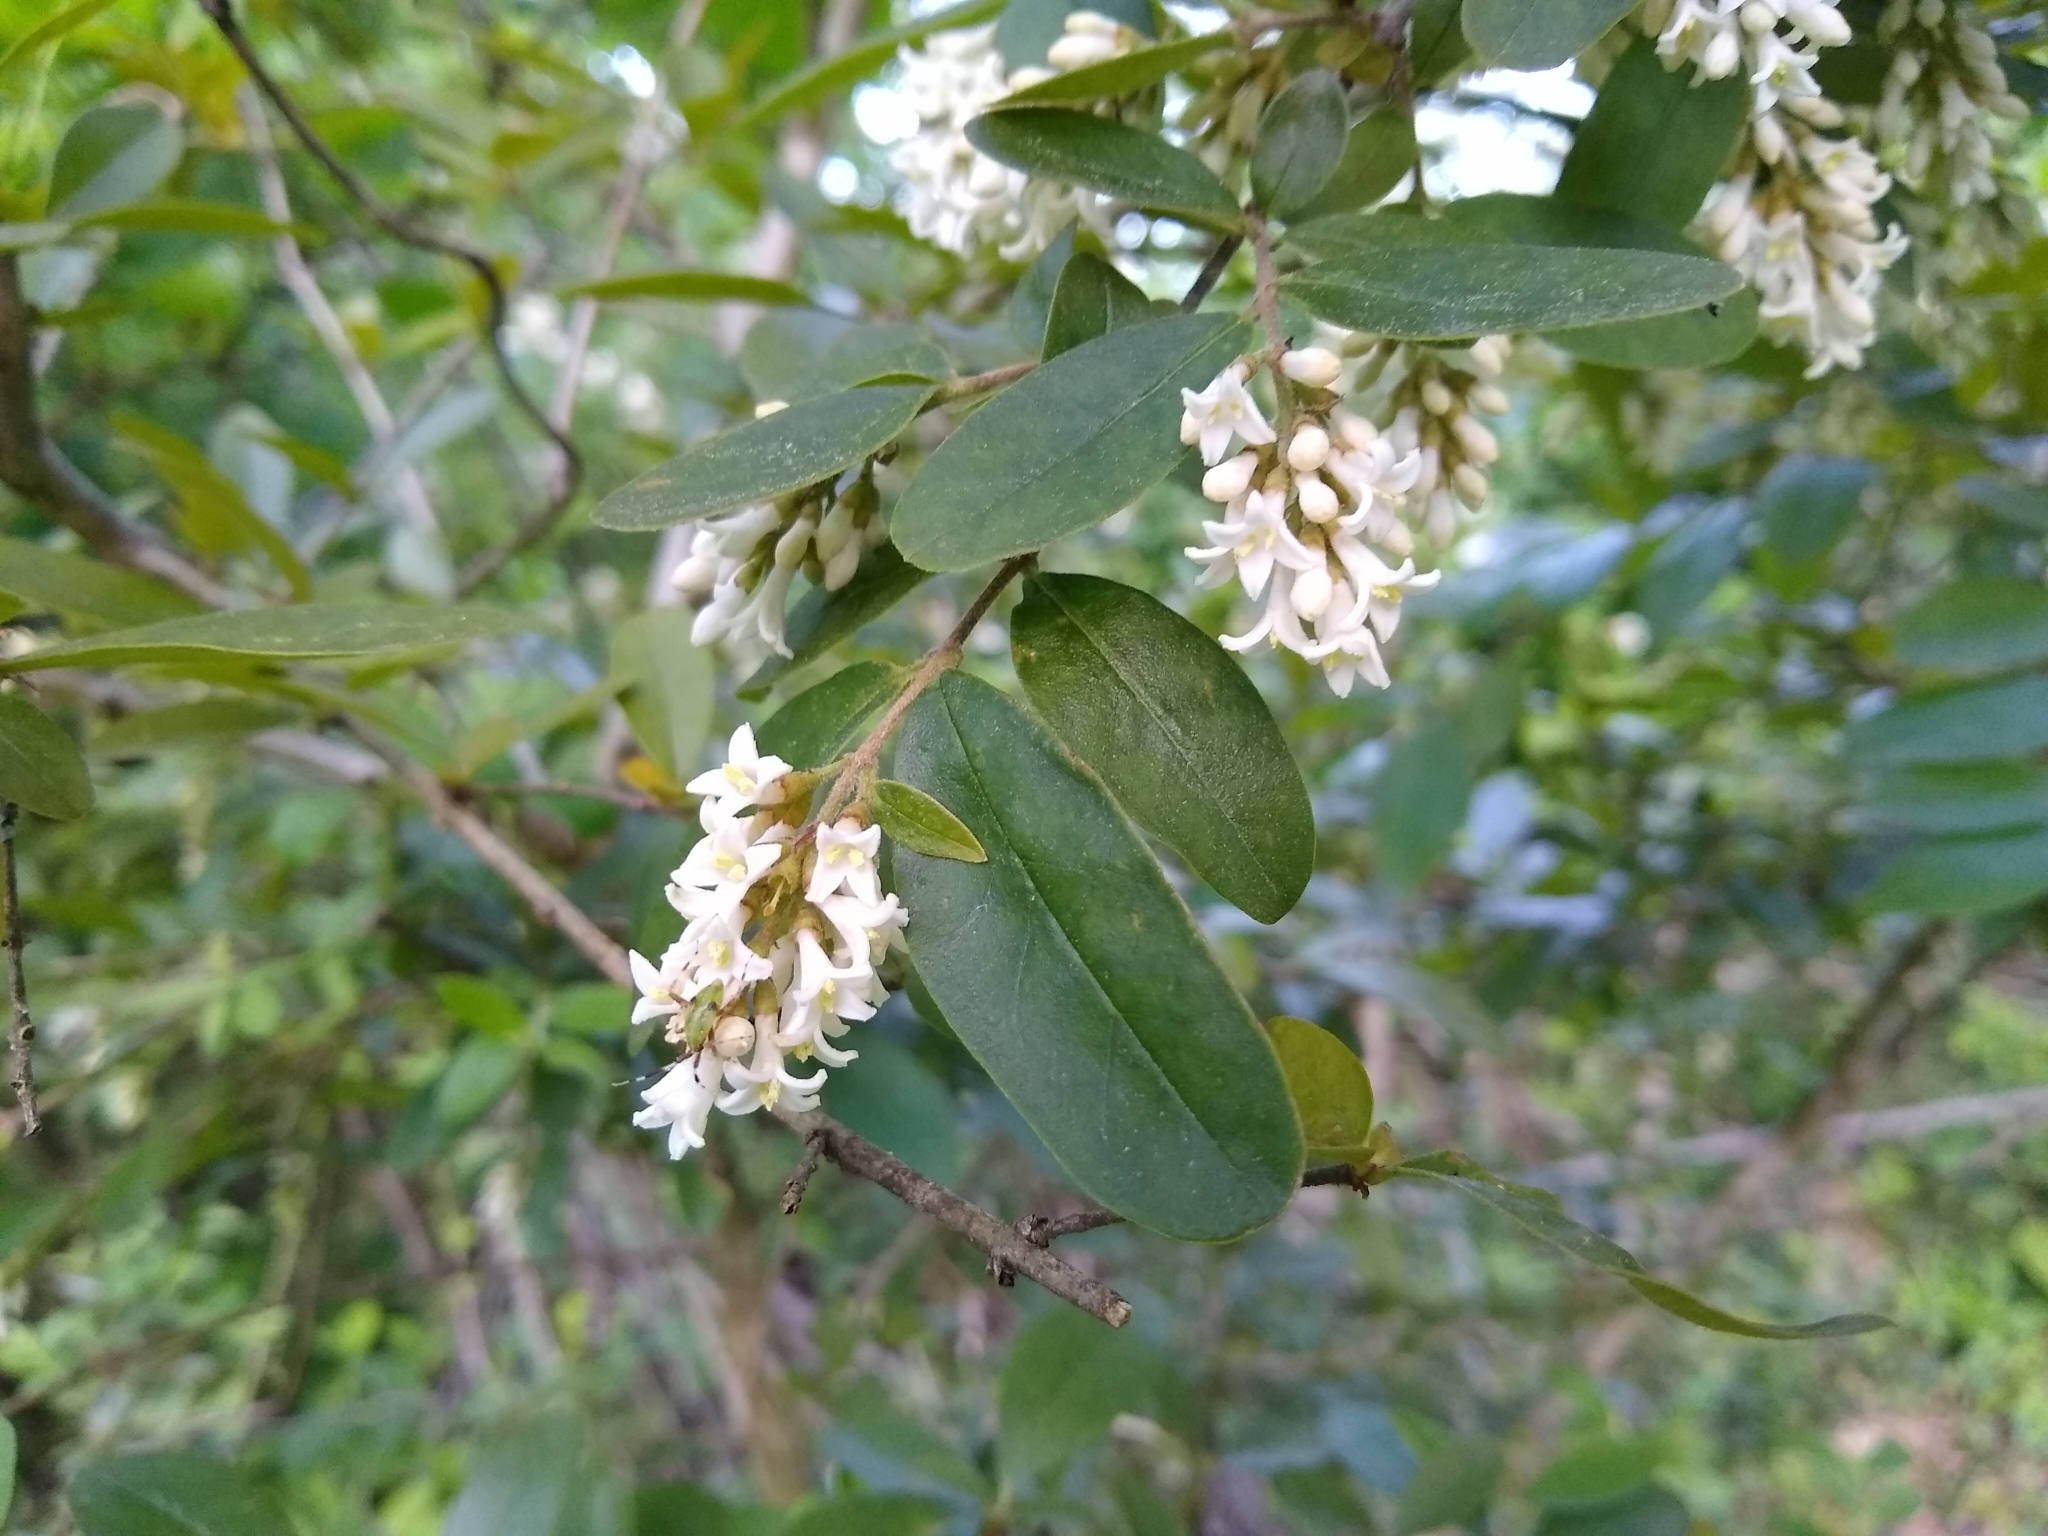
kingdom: Plantae
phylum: Tracheophyta
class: Magnoliopsida
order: Lamiales
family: Oleaceae
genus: Ligustrum
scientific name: Ligustrum obtusifolium
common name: Border privet
